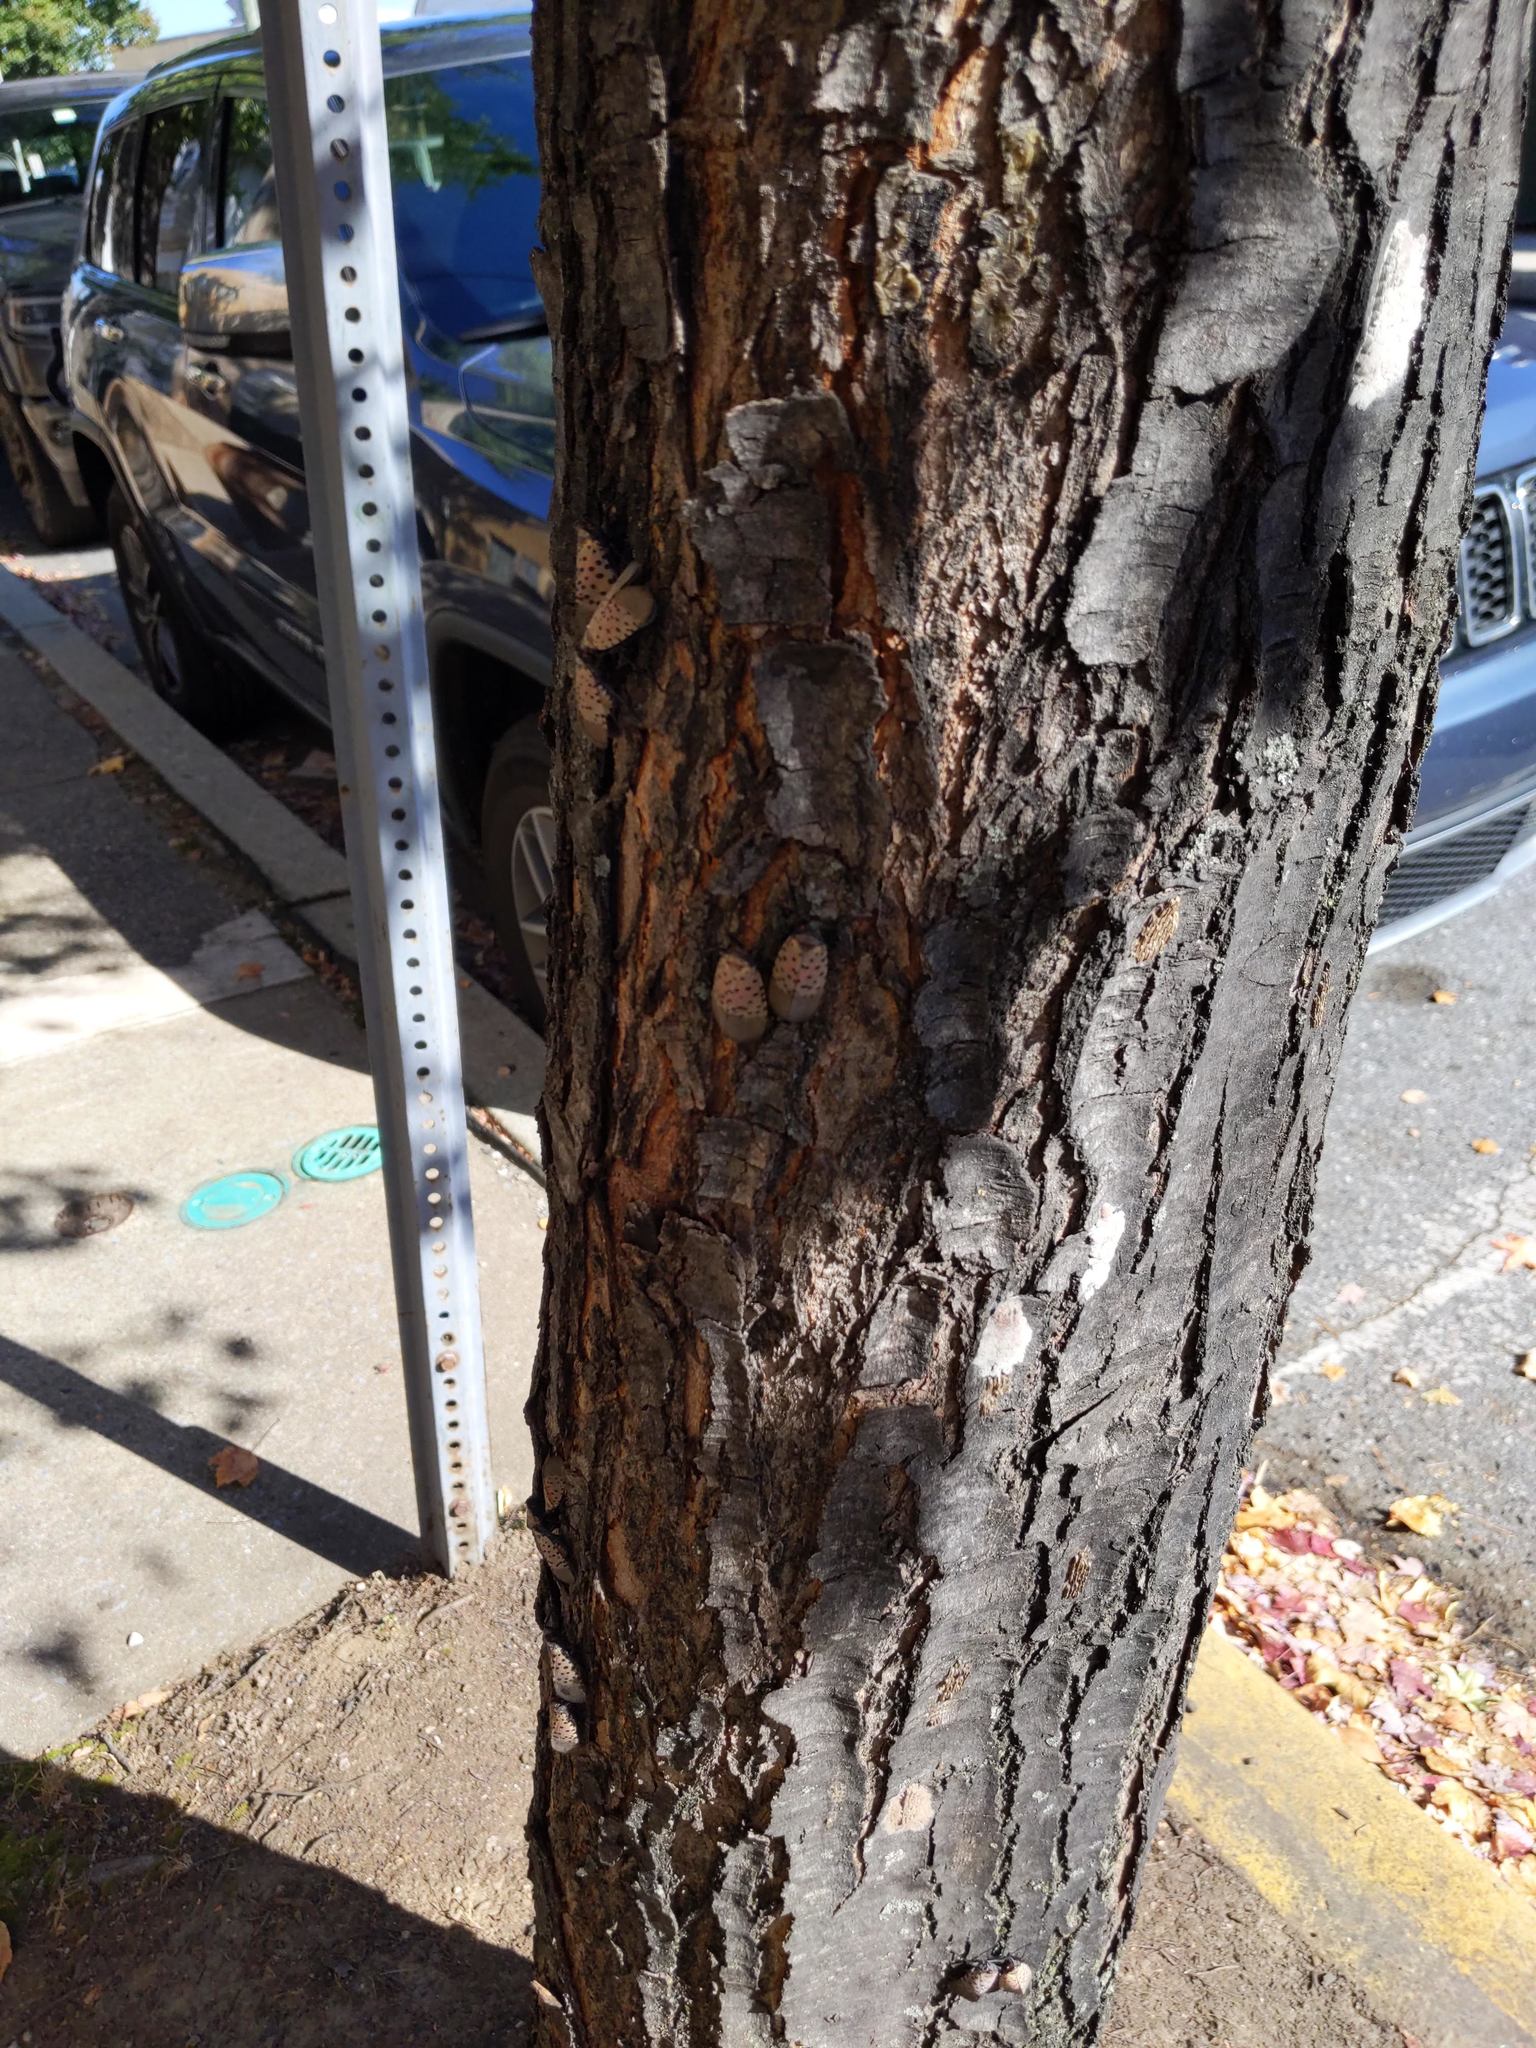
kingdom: Animalia
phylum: Arthropoda
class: Insecta
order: Hemiptera
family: Fulgoridae
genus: Lycorma
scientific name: Lycorma delicatula
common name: Spotted lanternfly
